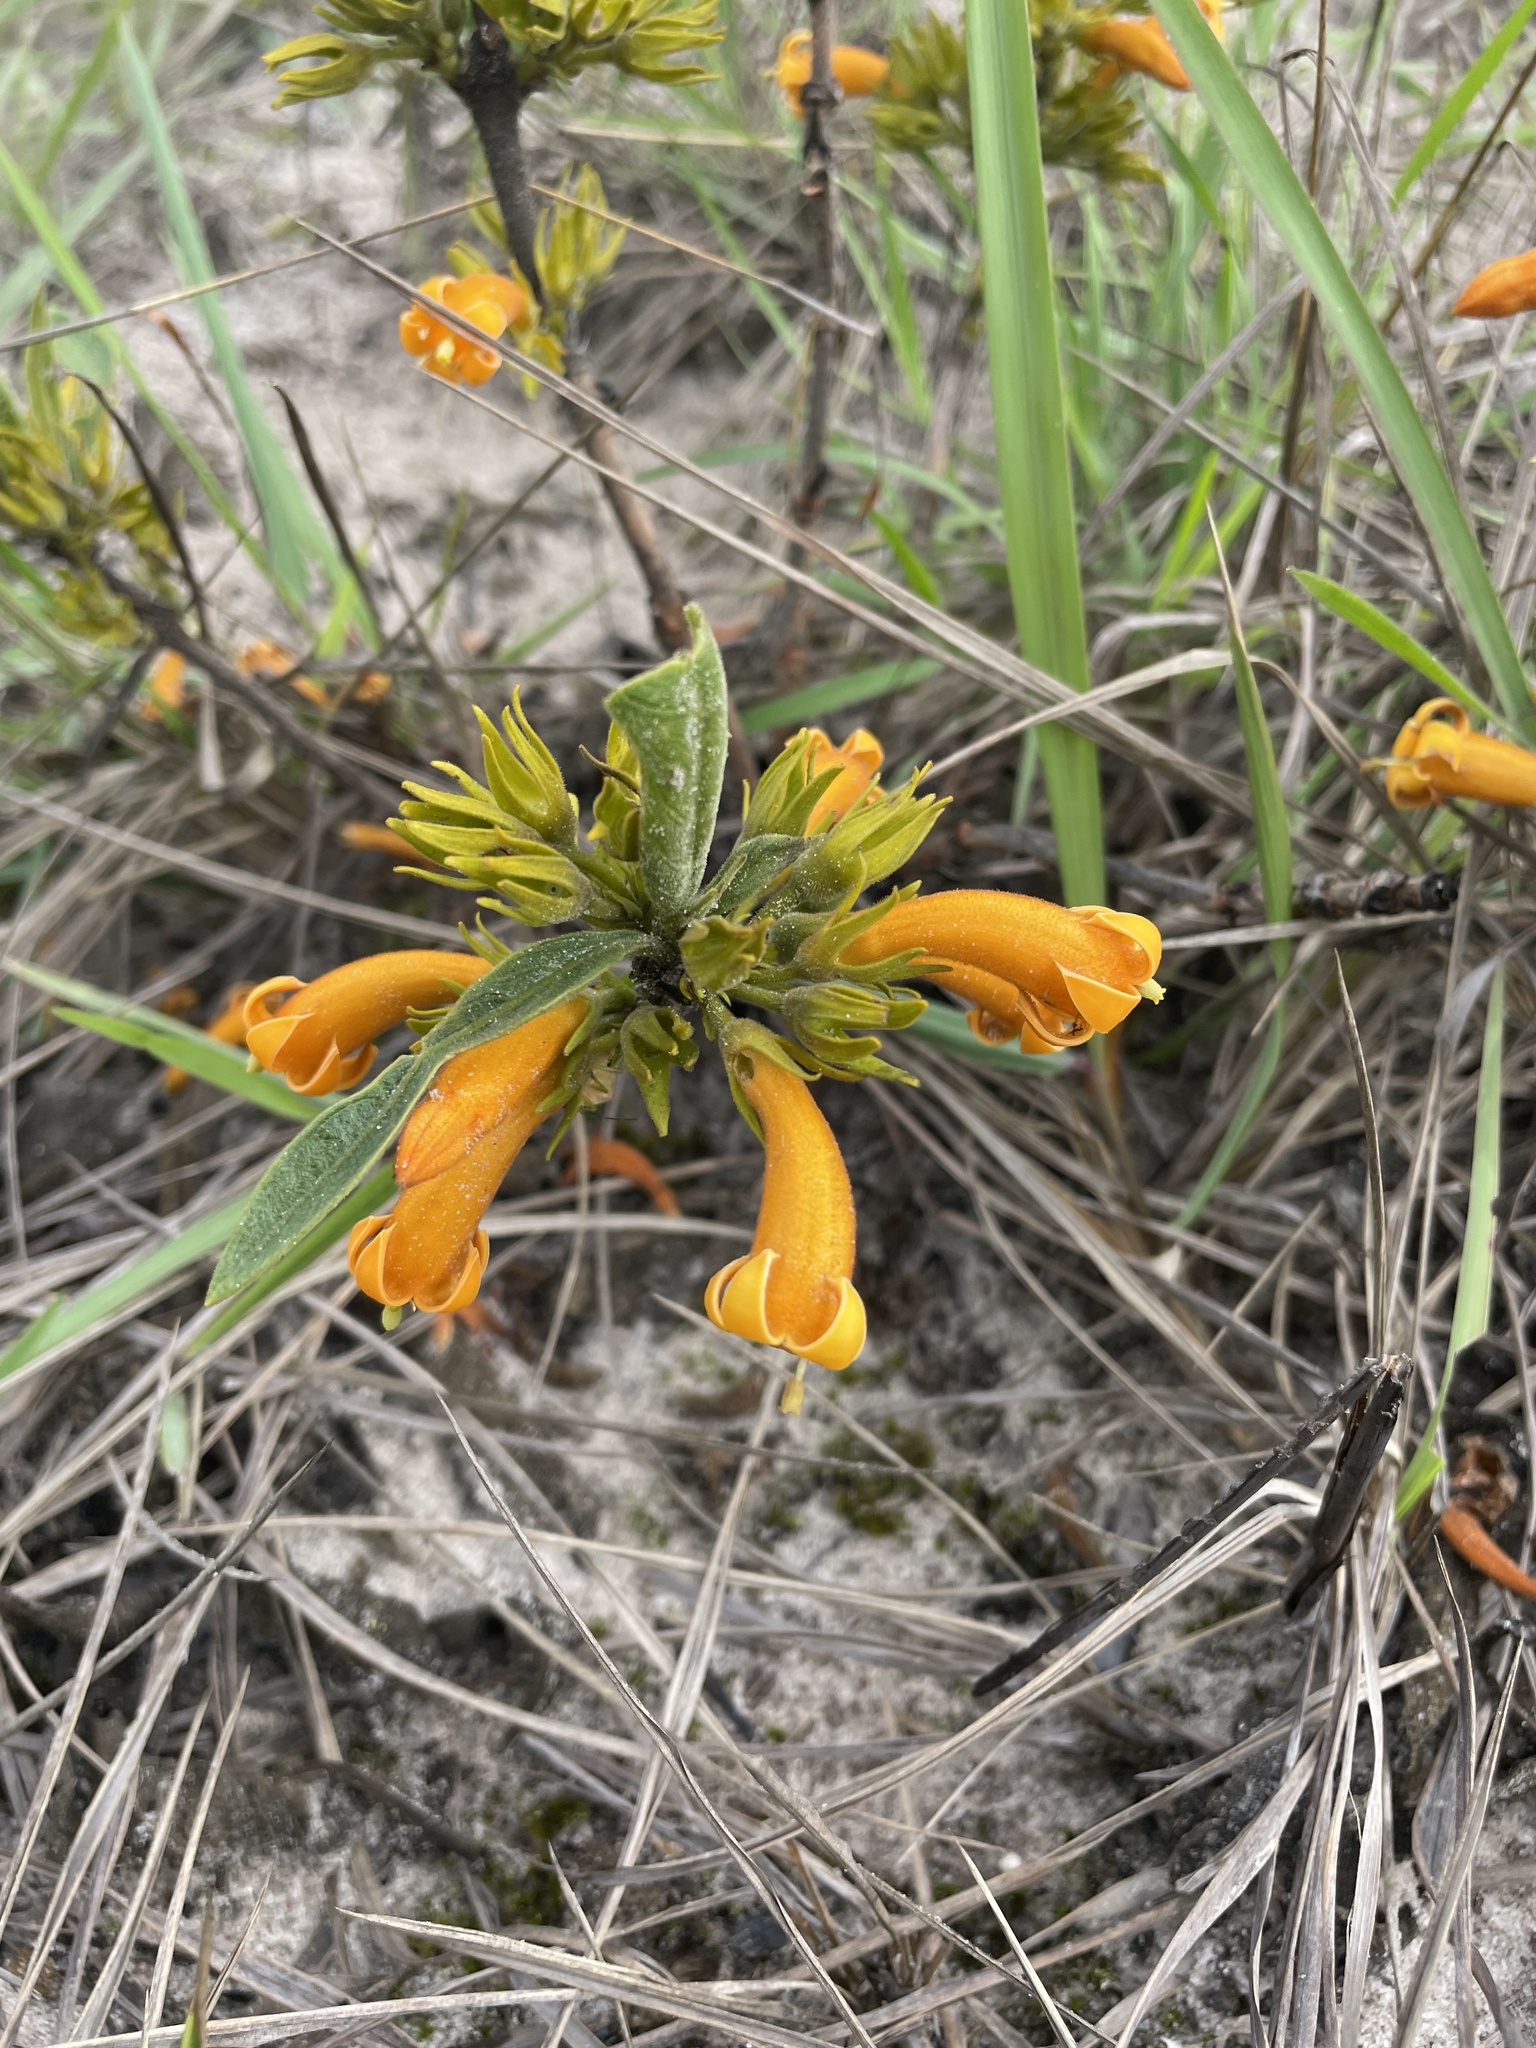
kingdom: Plantae
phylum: Tracheophyta
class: Magnoliopsida
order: Gentianales
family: Rubiaceae
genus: Vangueria
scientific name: Vangueria ferruginea
